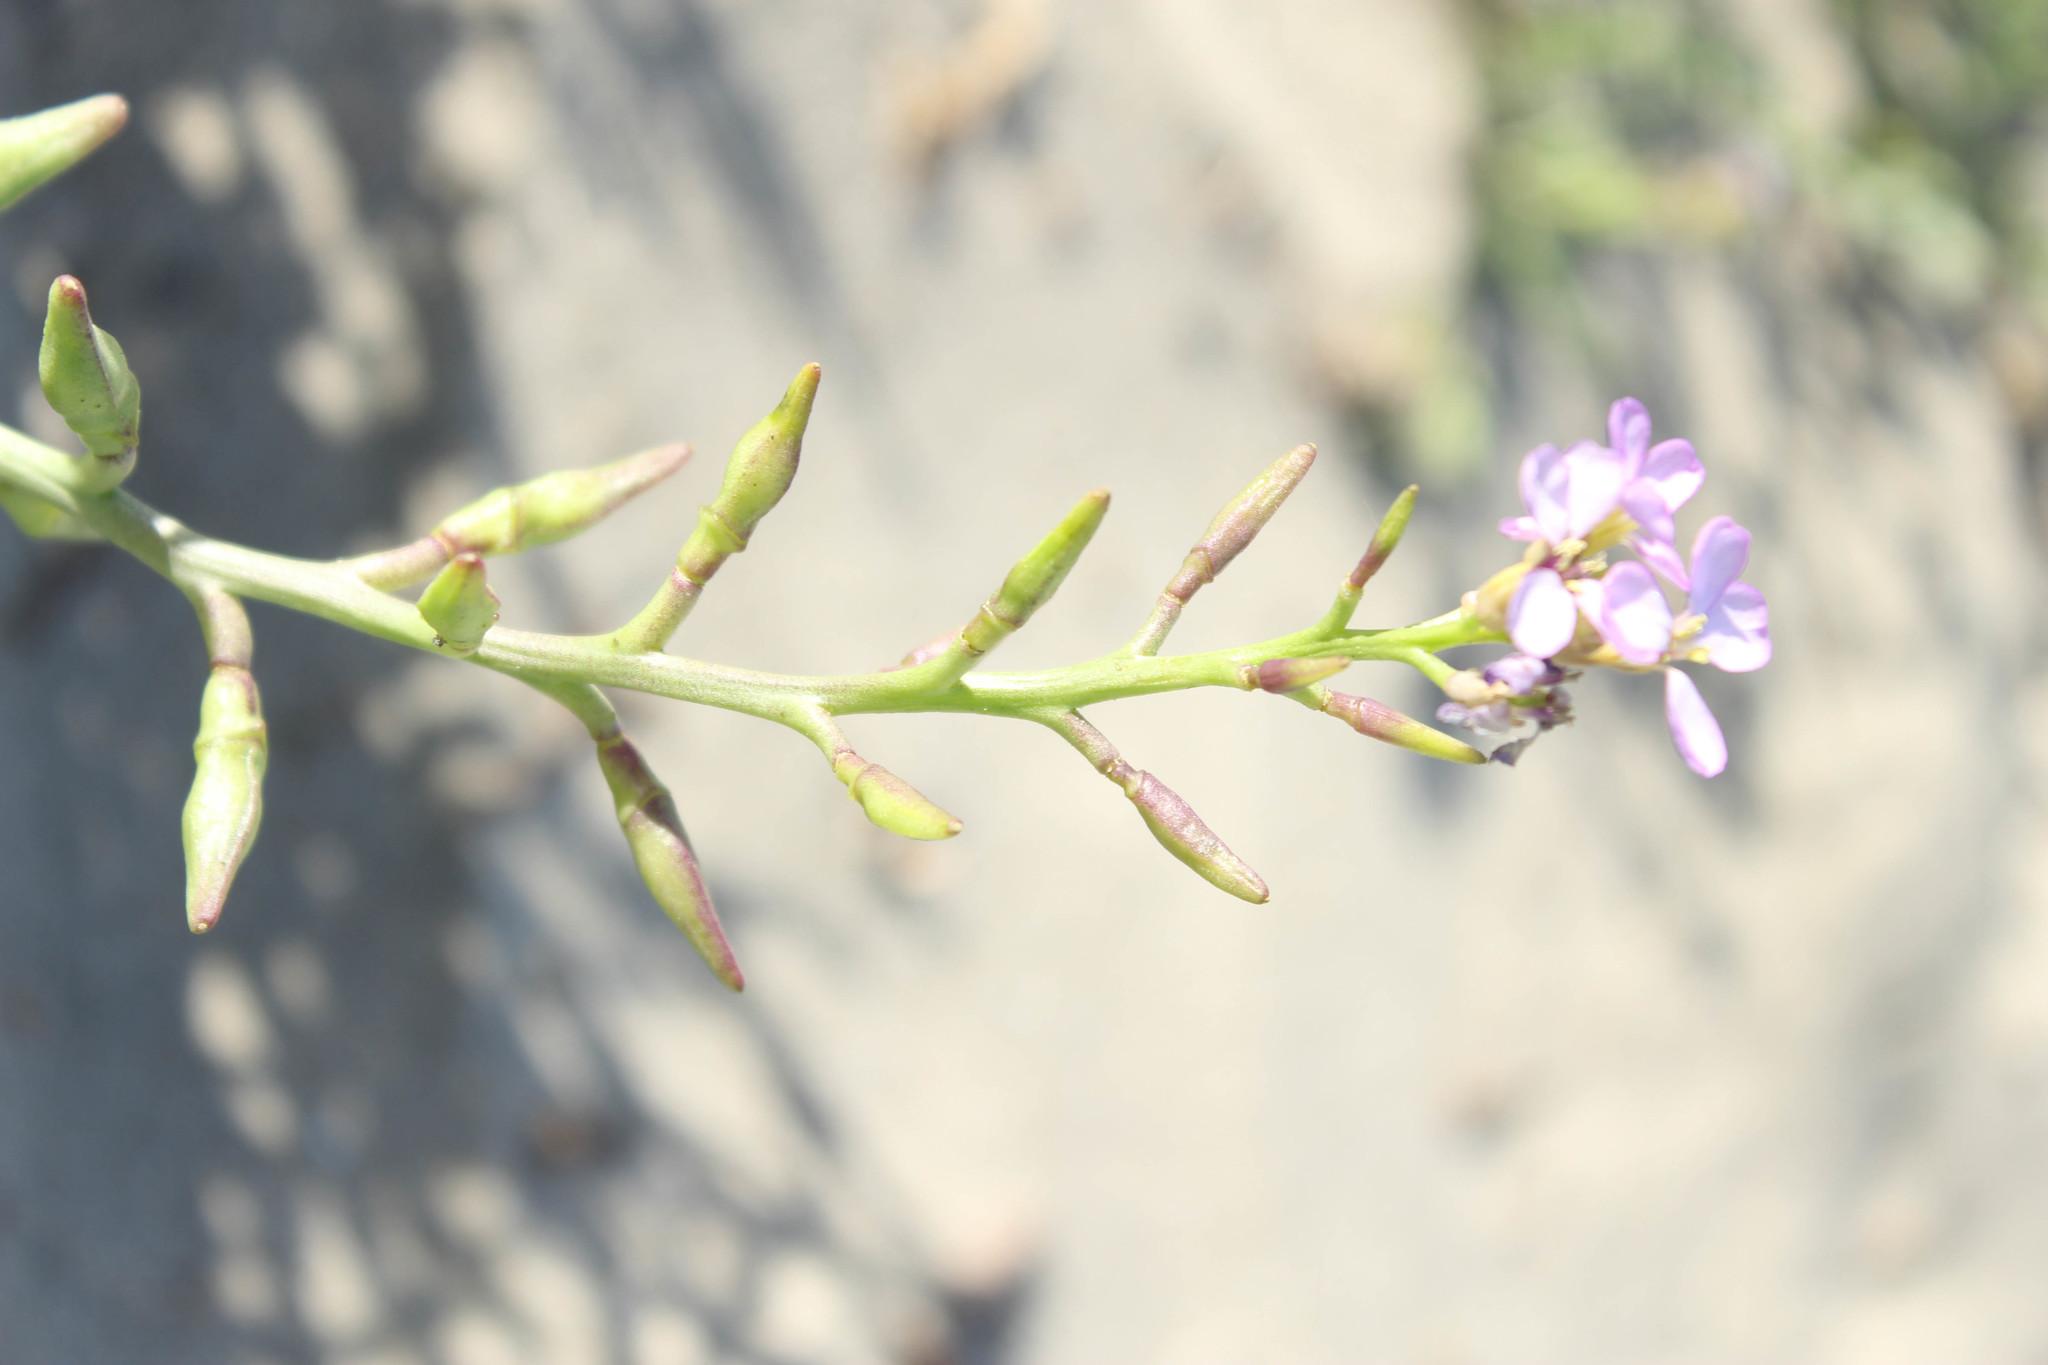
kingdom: Plantae
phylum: Tracheophyta
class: Magnoliopsida
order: Brassicales
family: Brassicaceae
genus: Cakile
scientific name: Cakile maritima
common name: Sea rocket
